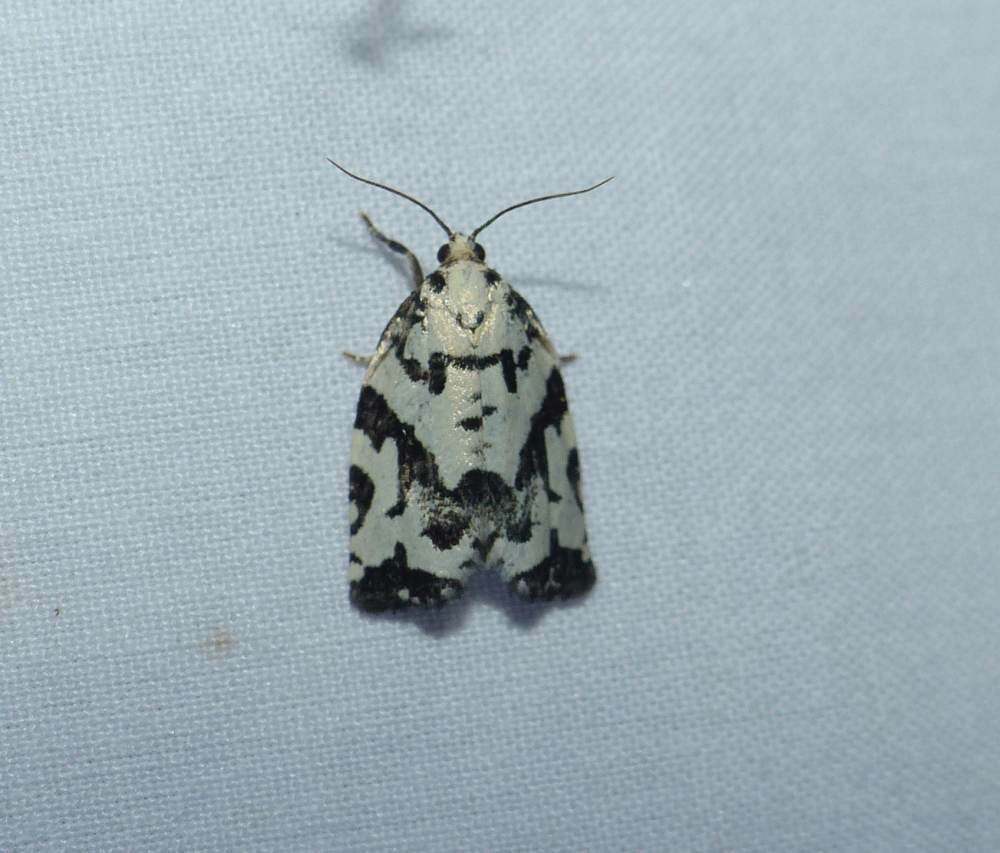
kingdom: Animalia
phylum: Arthropoda
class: Insecta
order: Lepidoptera
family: Tortricidae
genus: Archips
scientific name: Archips dissitana
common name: Boldly-marked archips moth
